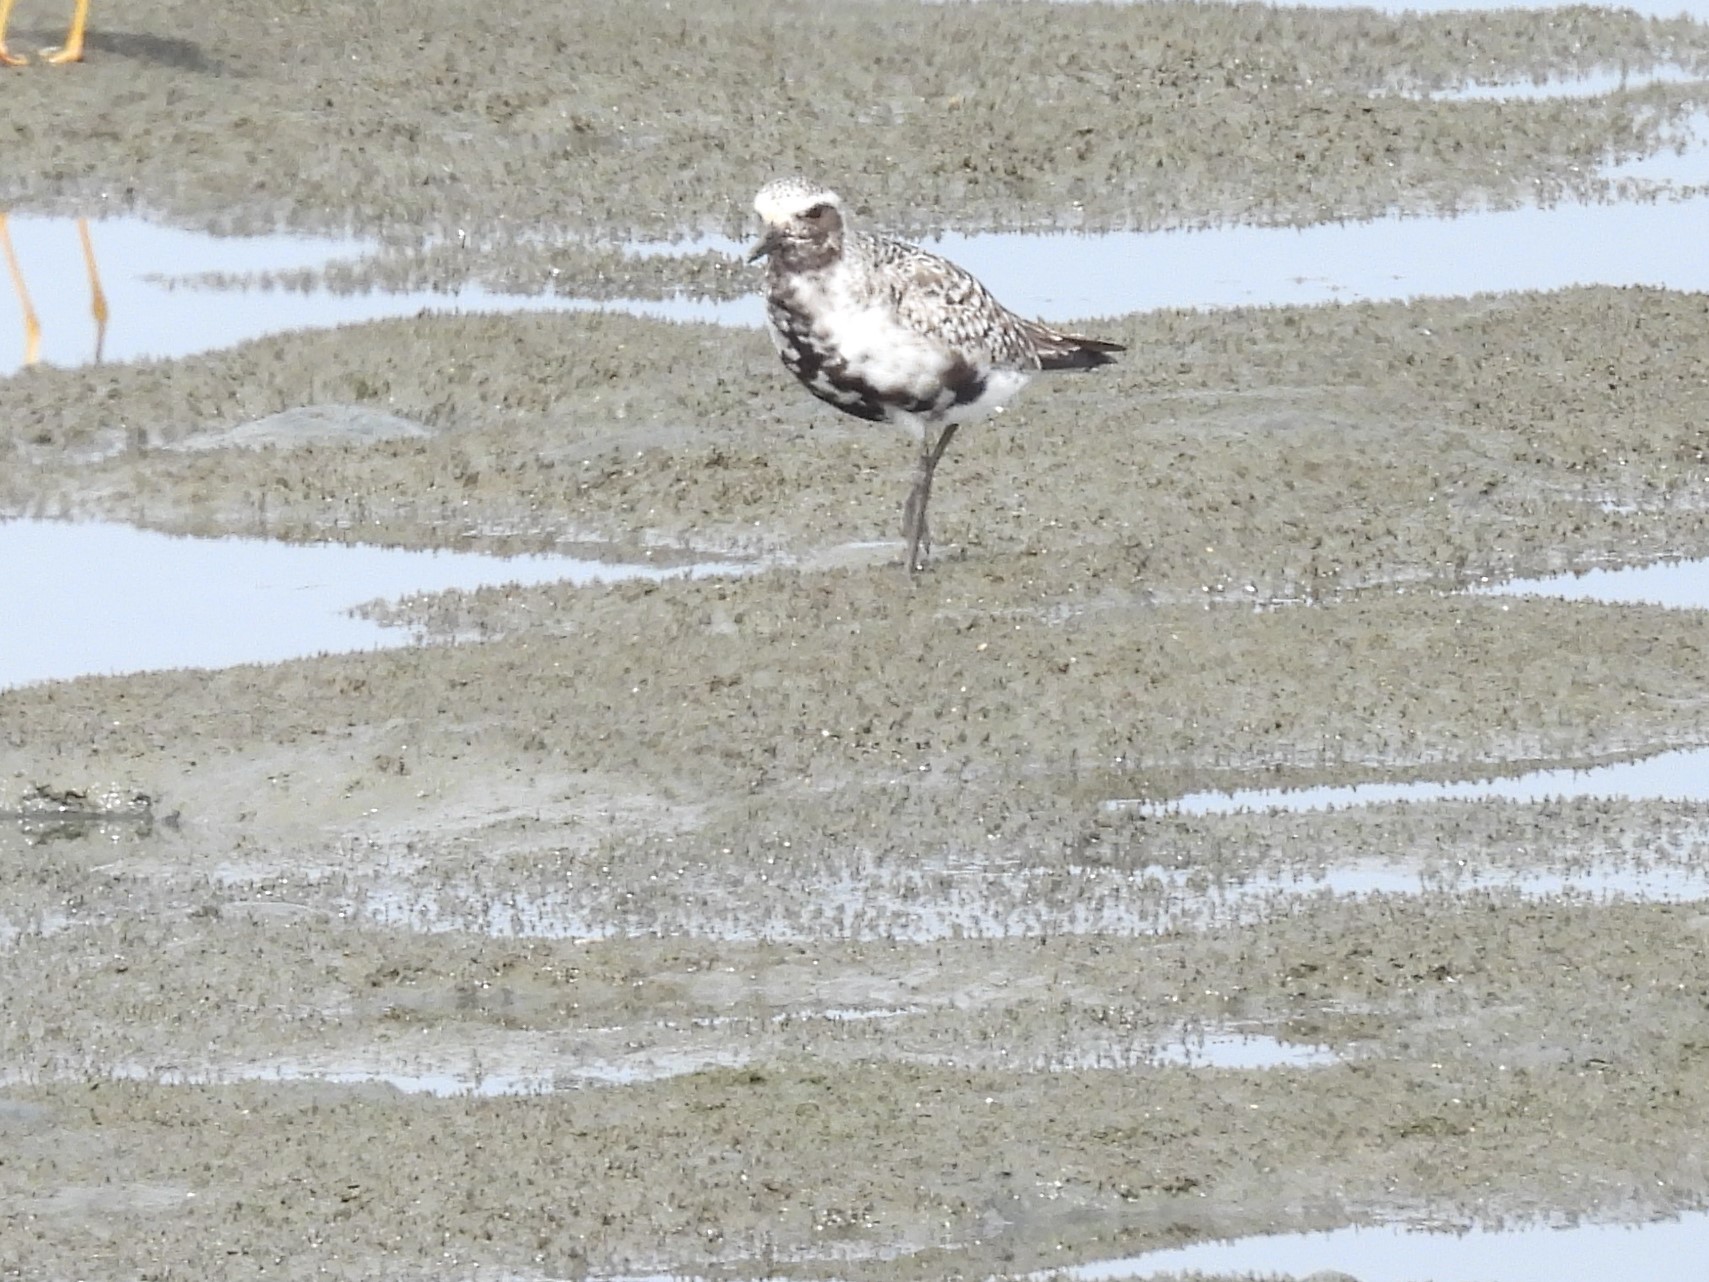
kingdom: Animalia
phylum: Chordata
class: Aves
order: Charadriiformes
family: Charadriidae
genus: Pluvialis
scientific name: Pluvialis squatarola
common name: Grey plover
